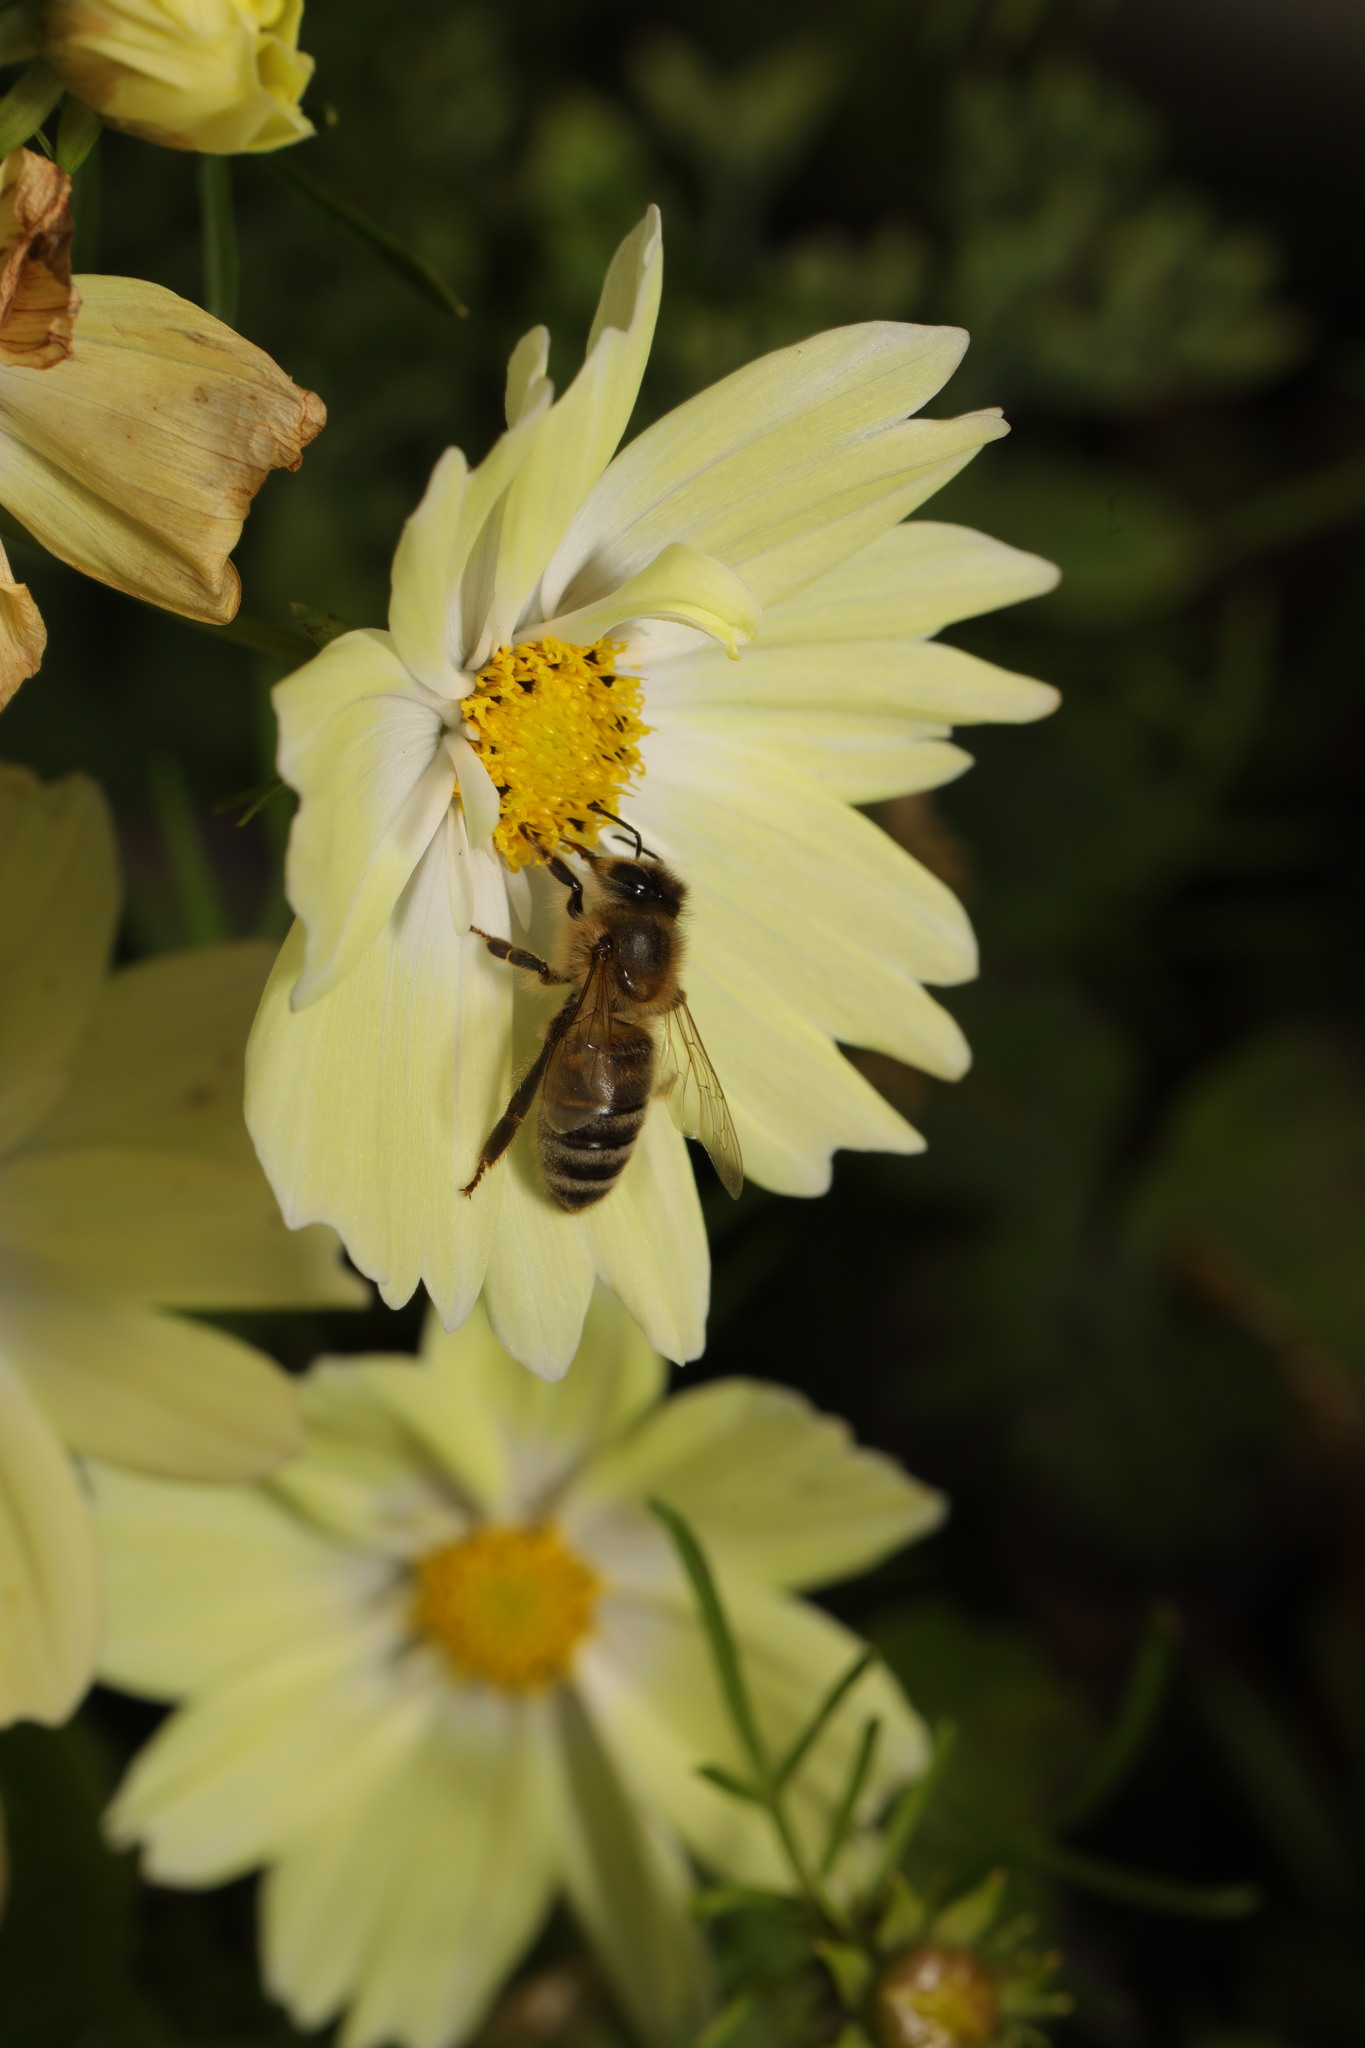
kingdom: Animalia
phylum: Arthropoda
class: Insecta
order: Hymenoptera
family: Apidae
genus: Apis
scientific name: Apis mellifera
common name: Honey bee
